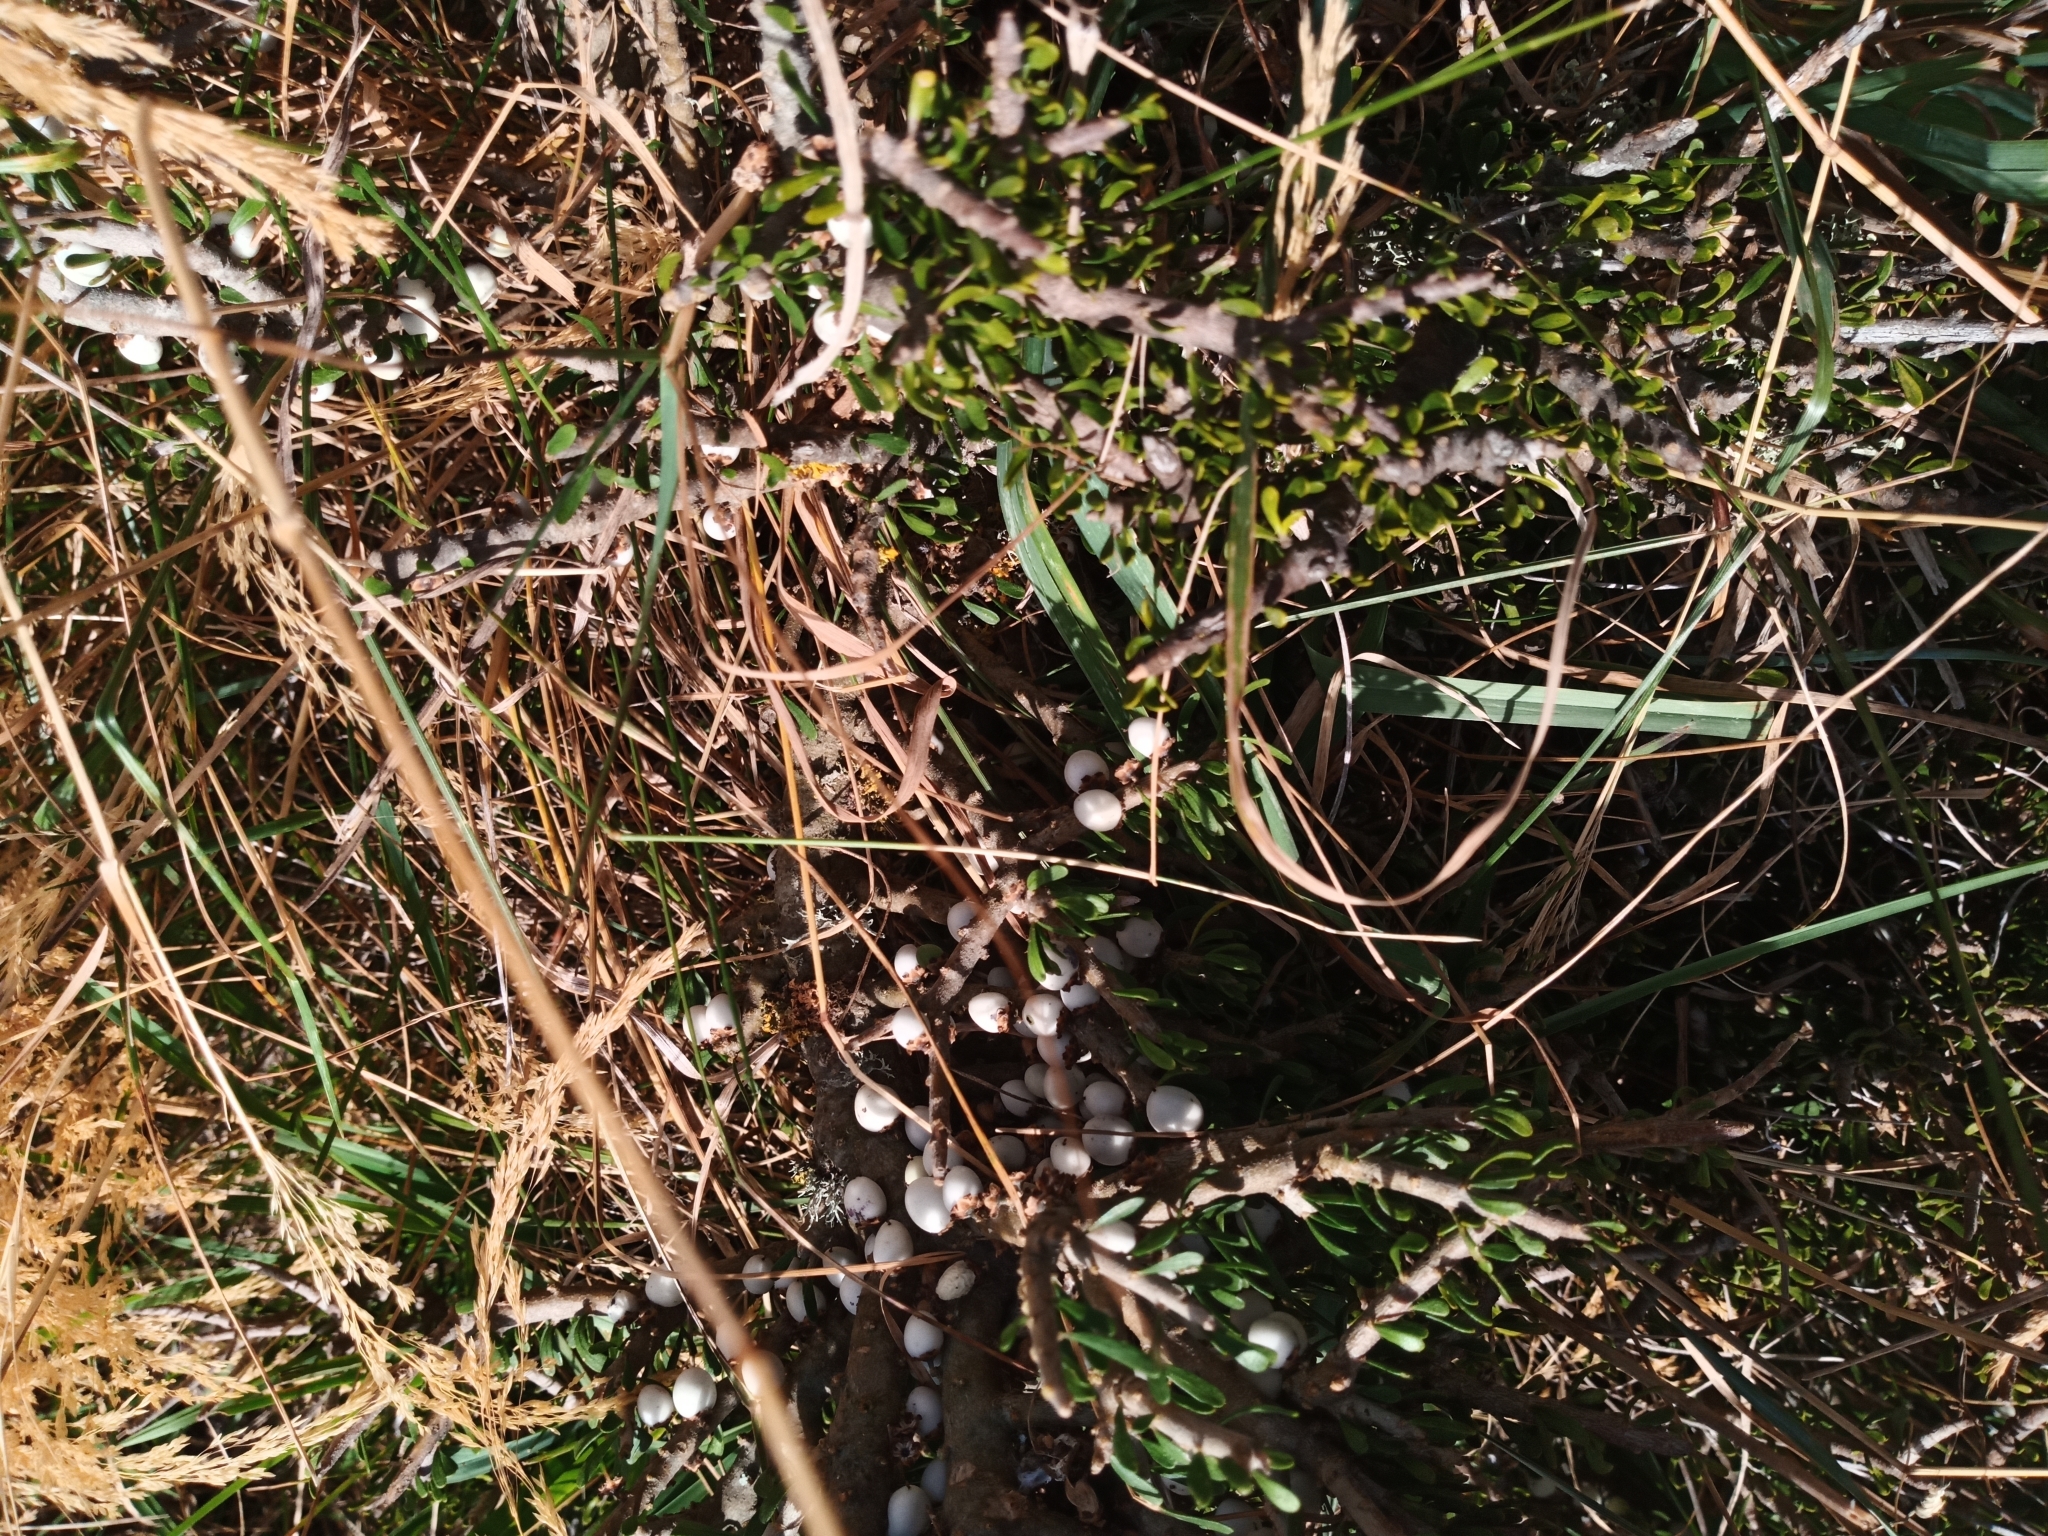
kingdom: Plantae
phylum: Tracheophyta
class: Magnoliopsida
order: Malpighiales
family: Violaceae
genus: Melicytus
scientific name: Melicytus alpinus
